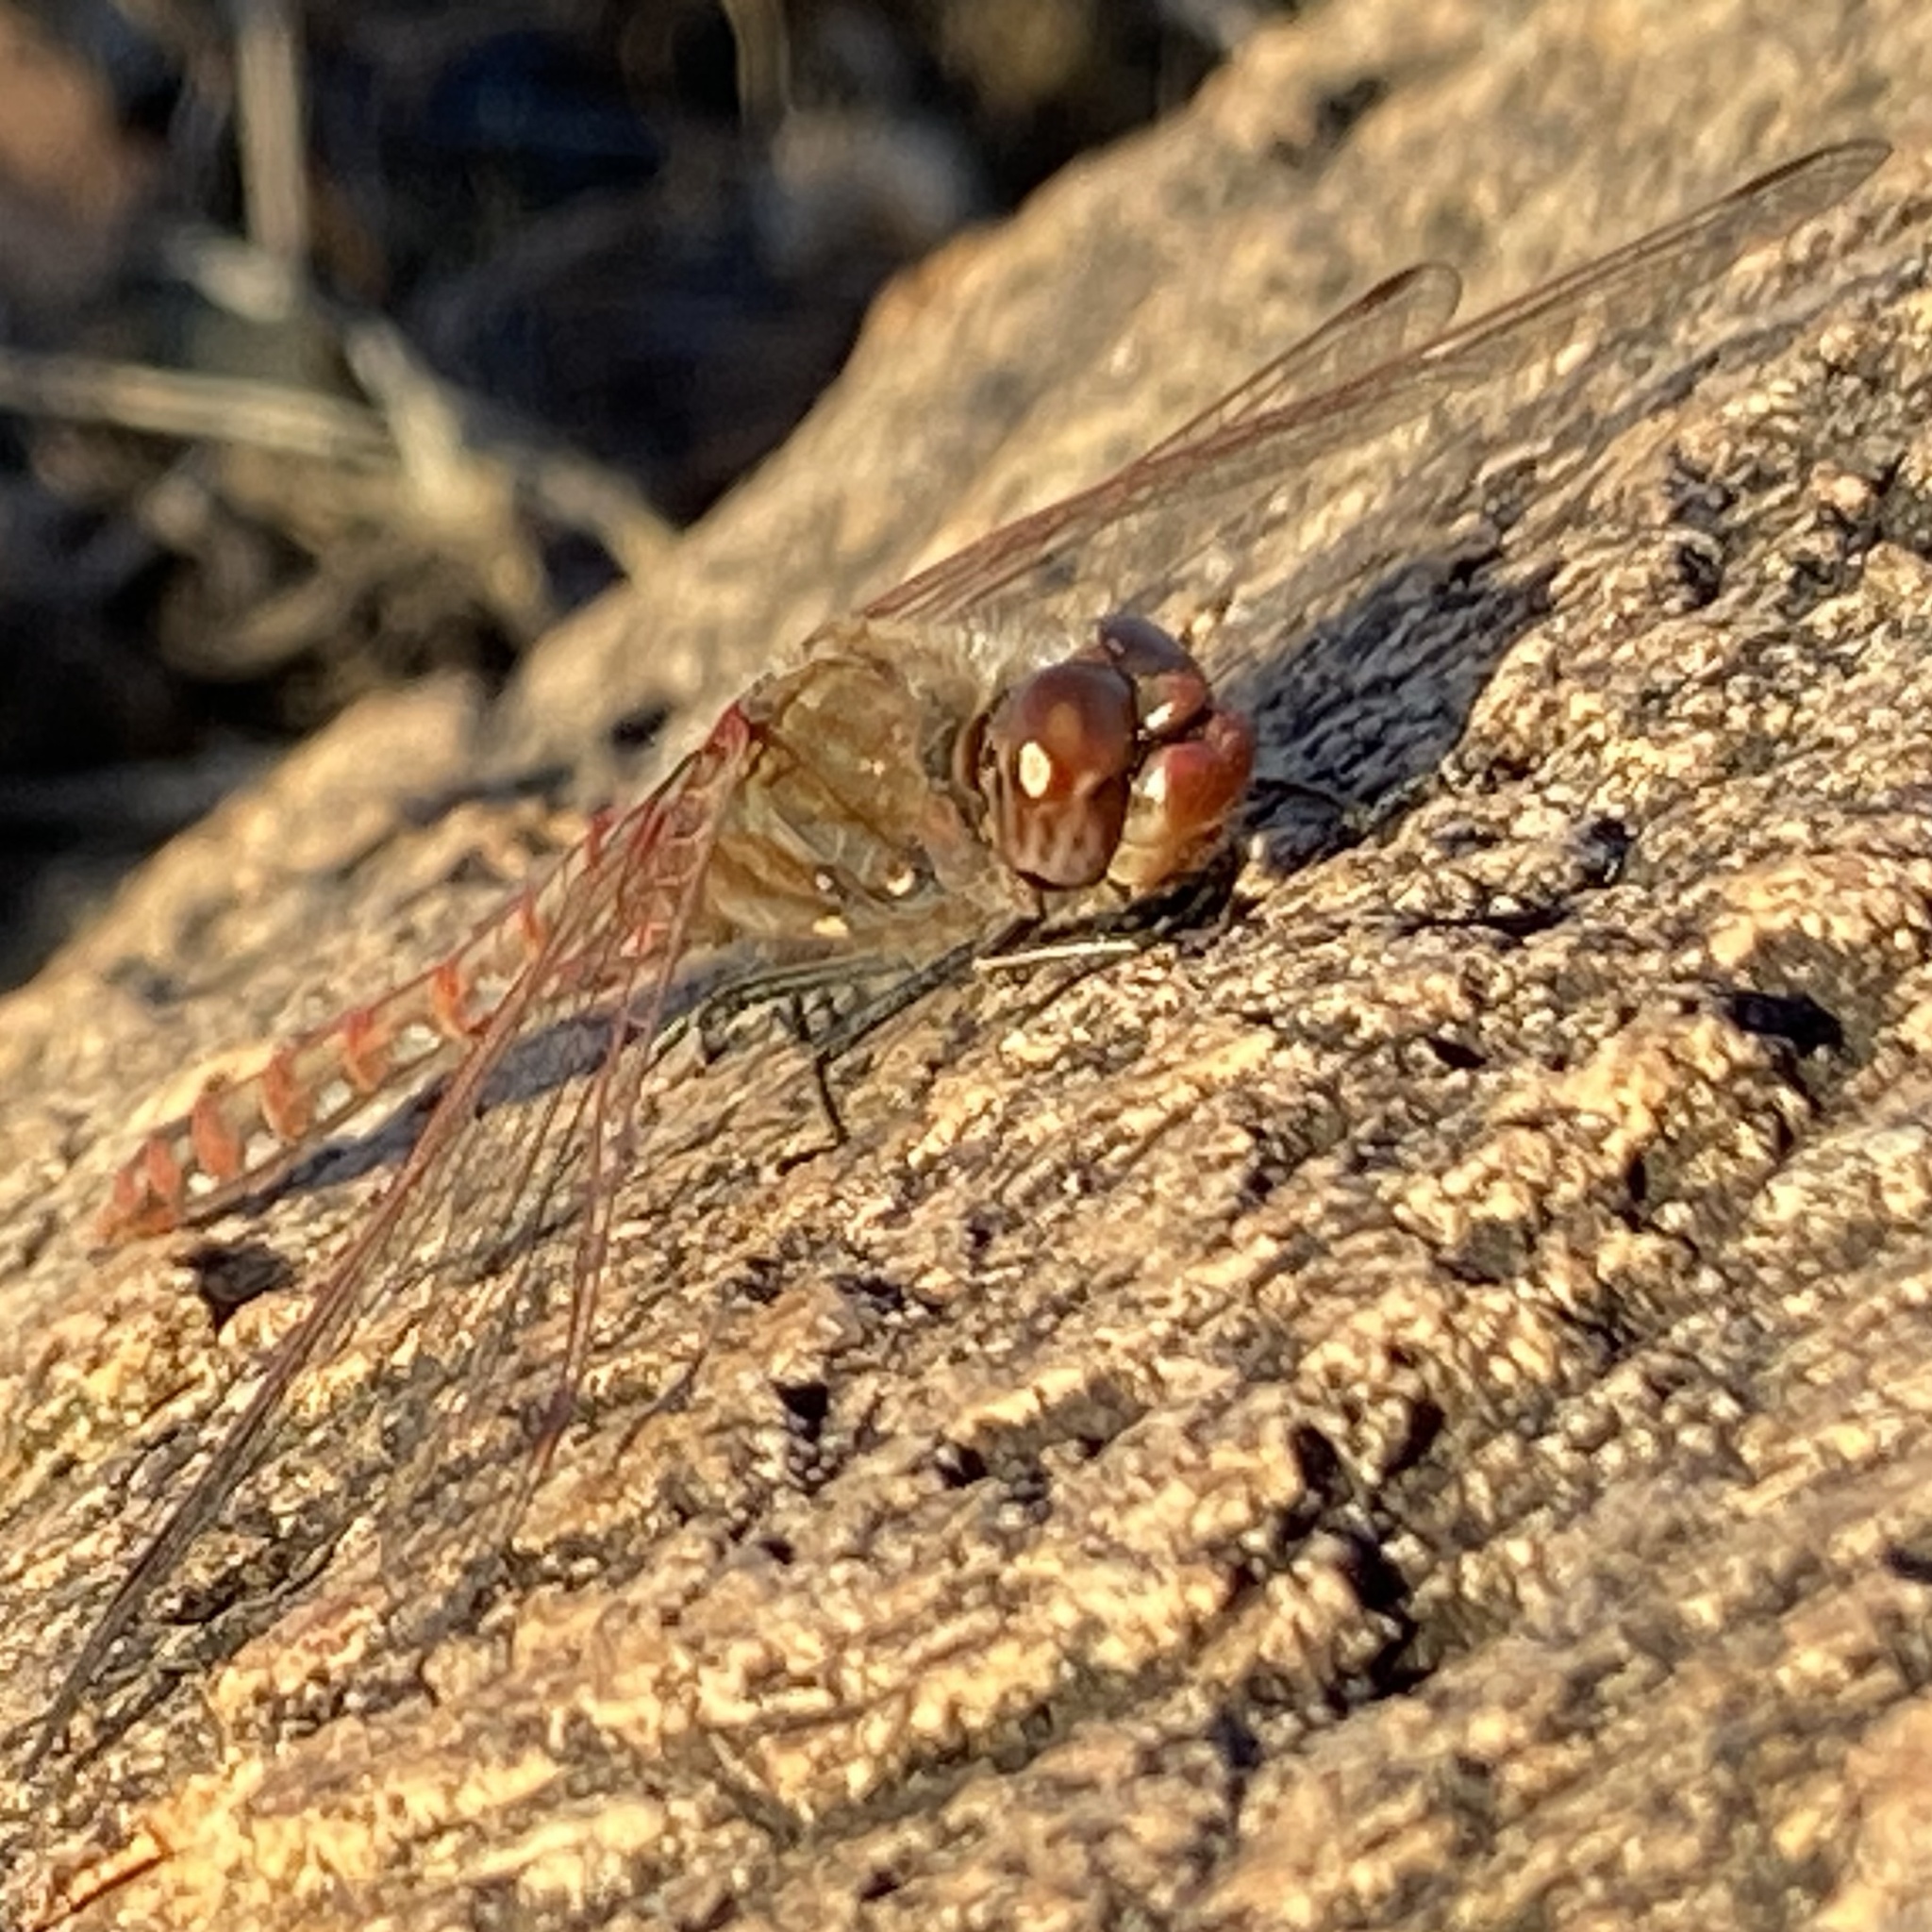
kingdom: Animalia
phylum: Arthropoda
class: Insecta
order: Odonata
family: Libellulidae
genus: Sympetrum
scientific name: Sympetrum corruptum
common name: Variegated meadowhawk
